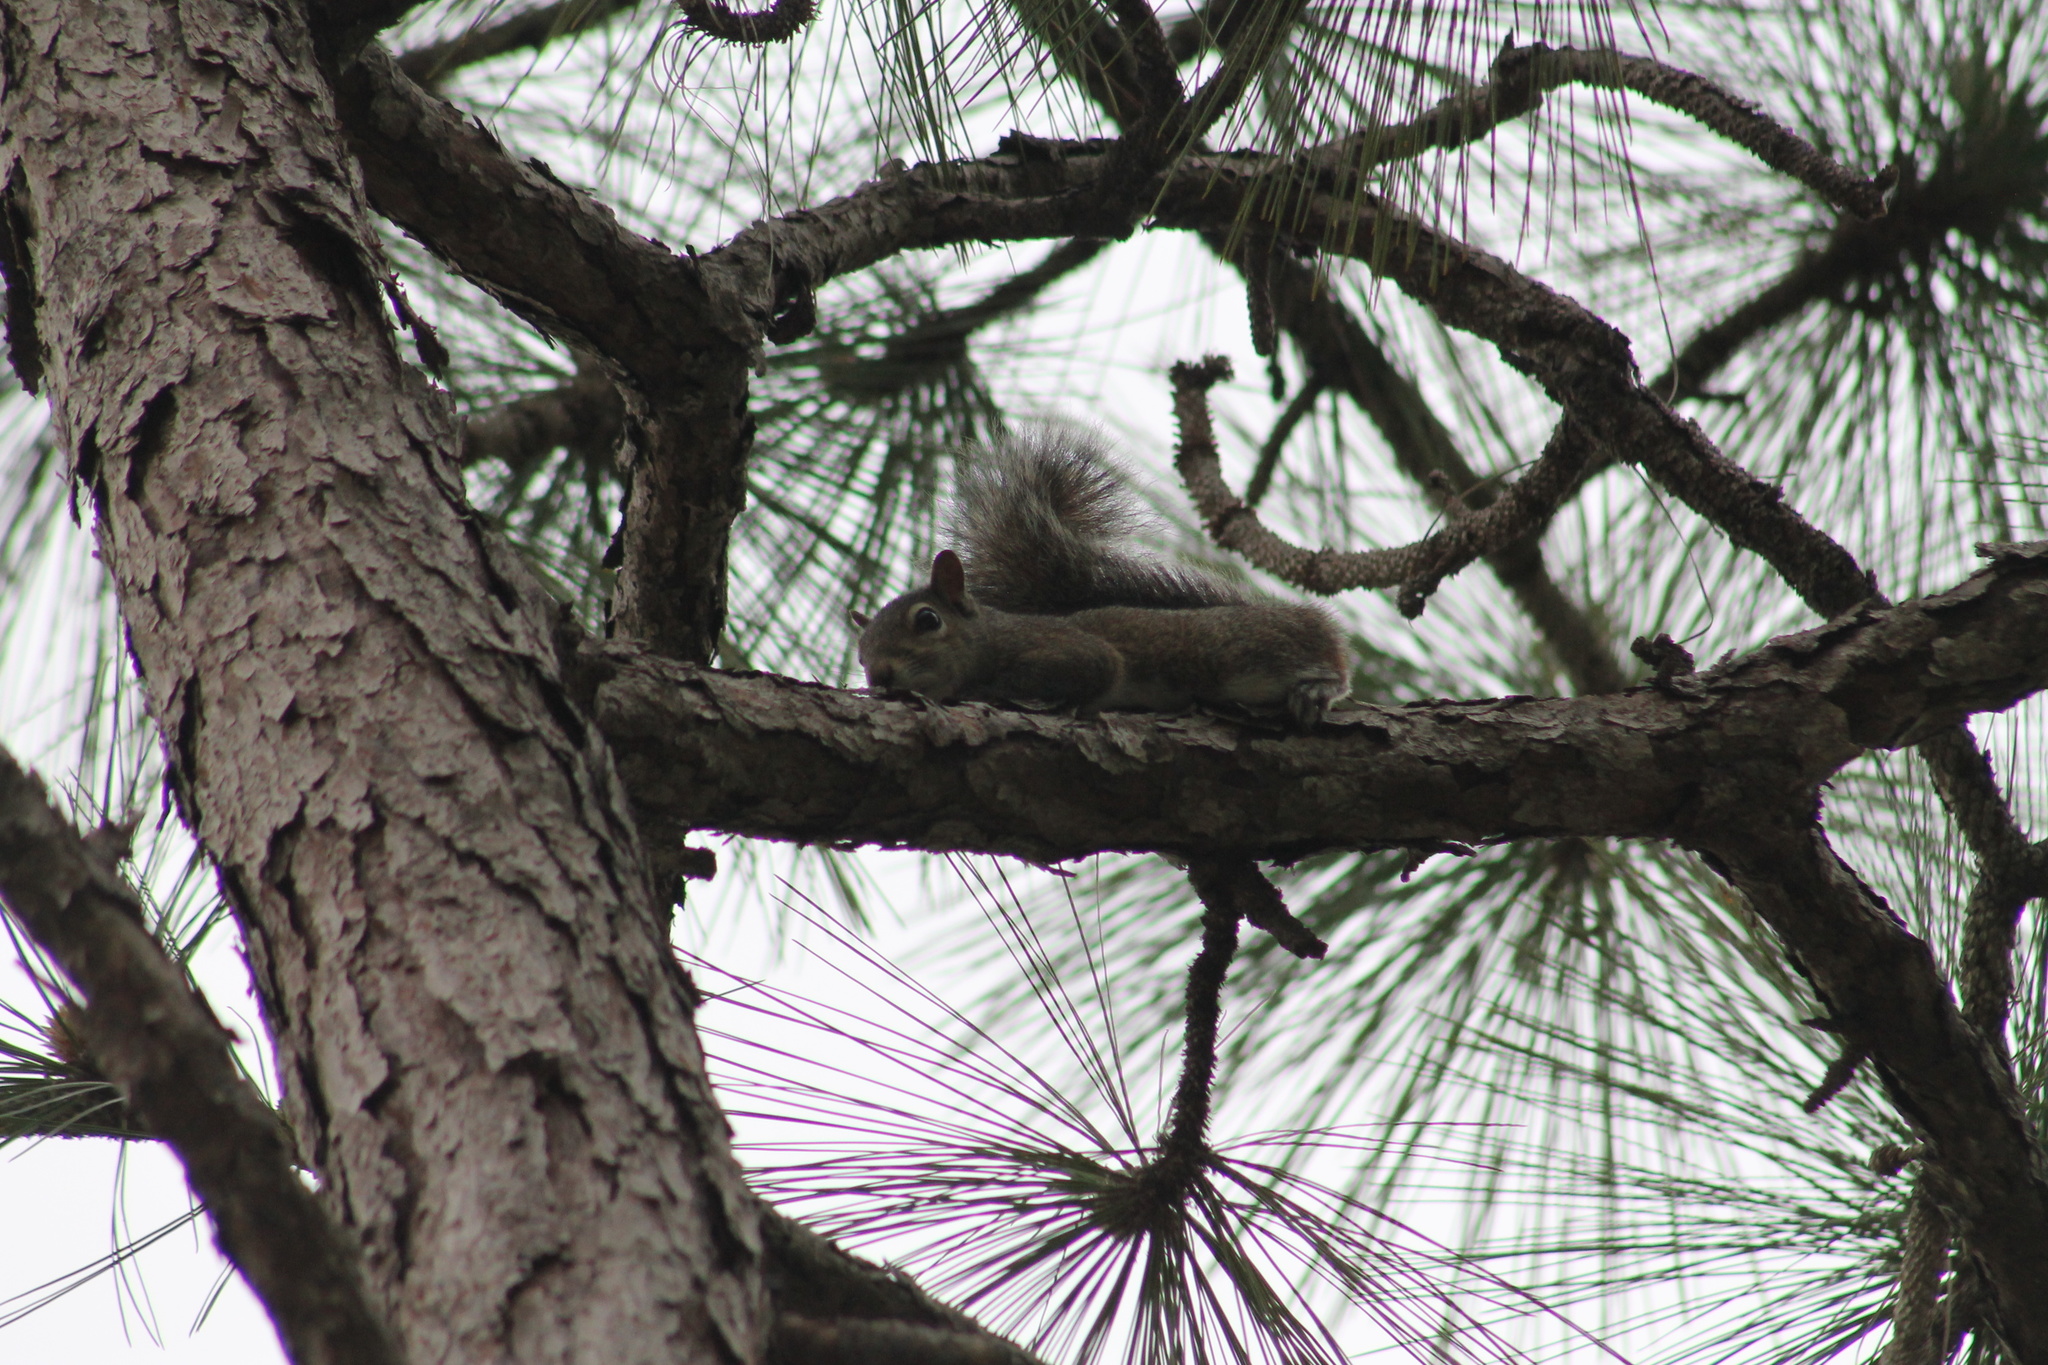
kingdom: Animalia
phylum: Chordata
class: Mammalia
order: Rodentia
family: Sciuridae
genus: Sciurus
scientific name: Sciurus carolinensis
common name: Eastern gray squirrel
